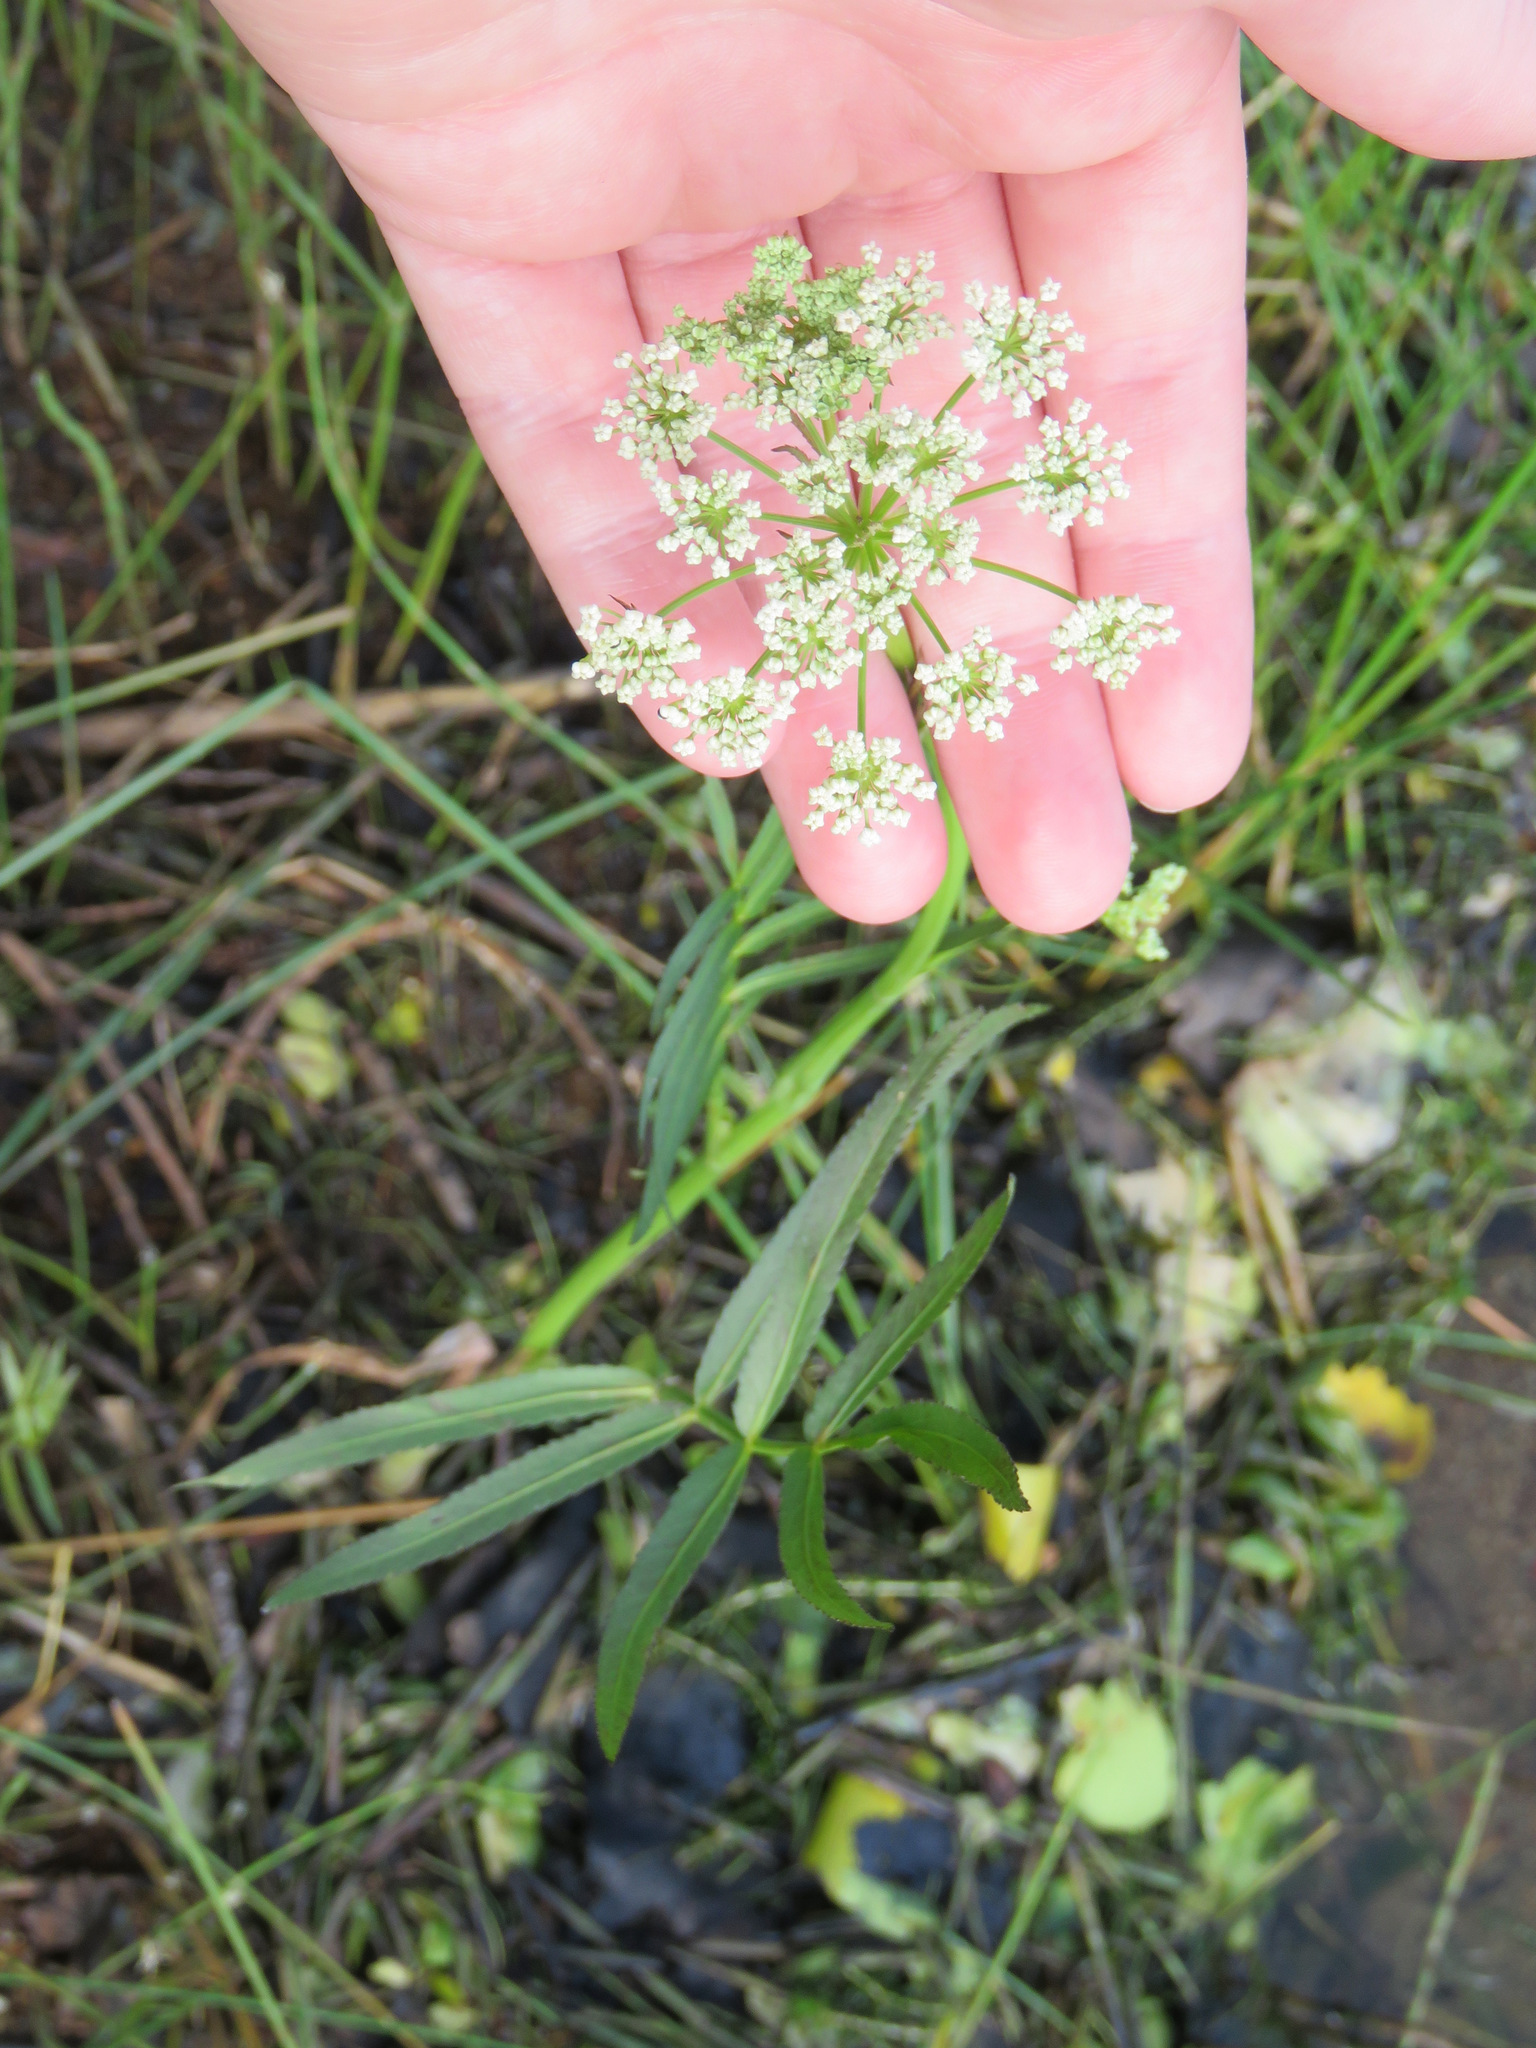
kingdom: Plantae
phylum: Tracheophyta
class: Magnoliopsida
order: Apiales
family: Apiaceae
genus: Sium
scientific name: Sium suave
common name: Hemlock water-parsnip
